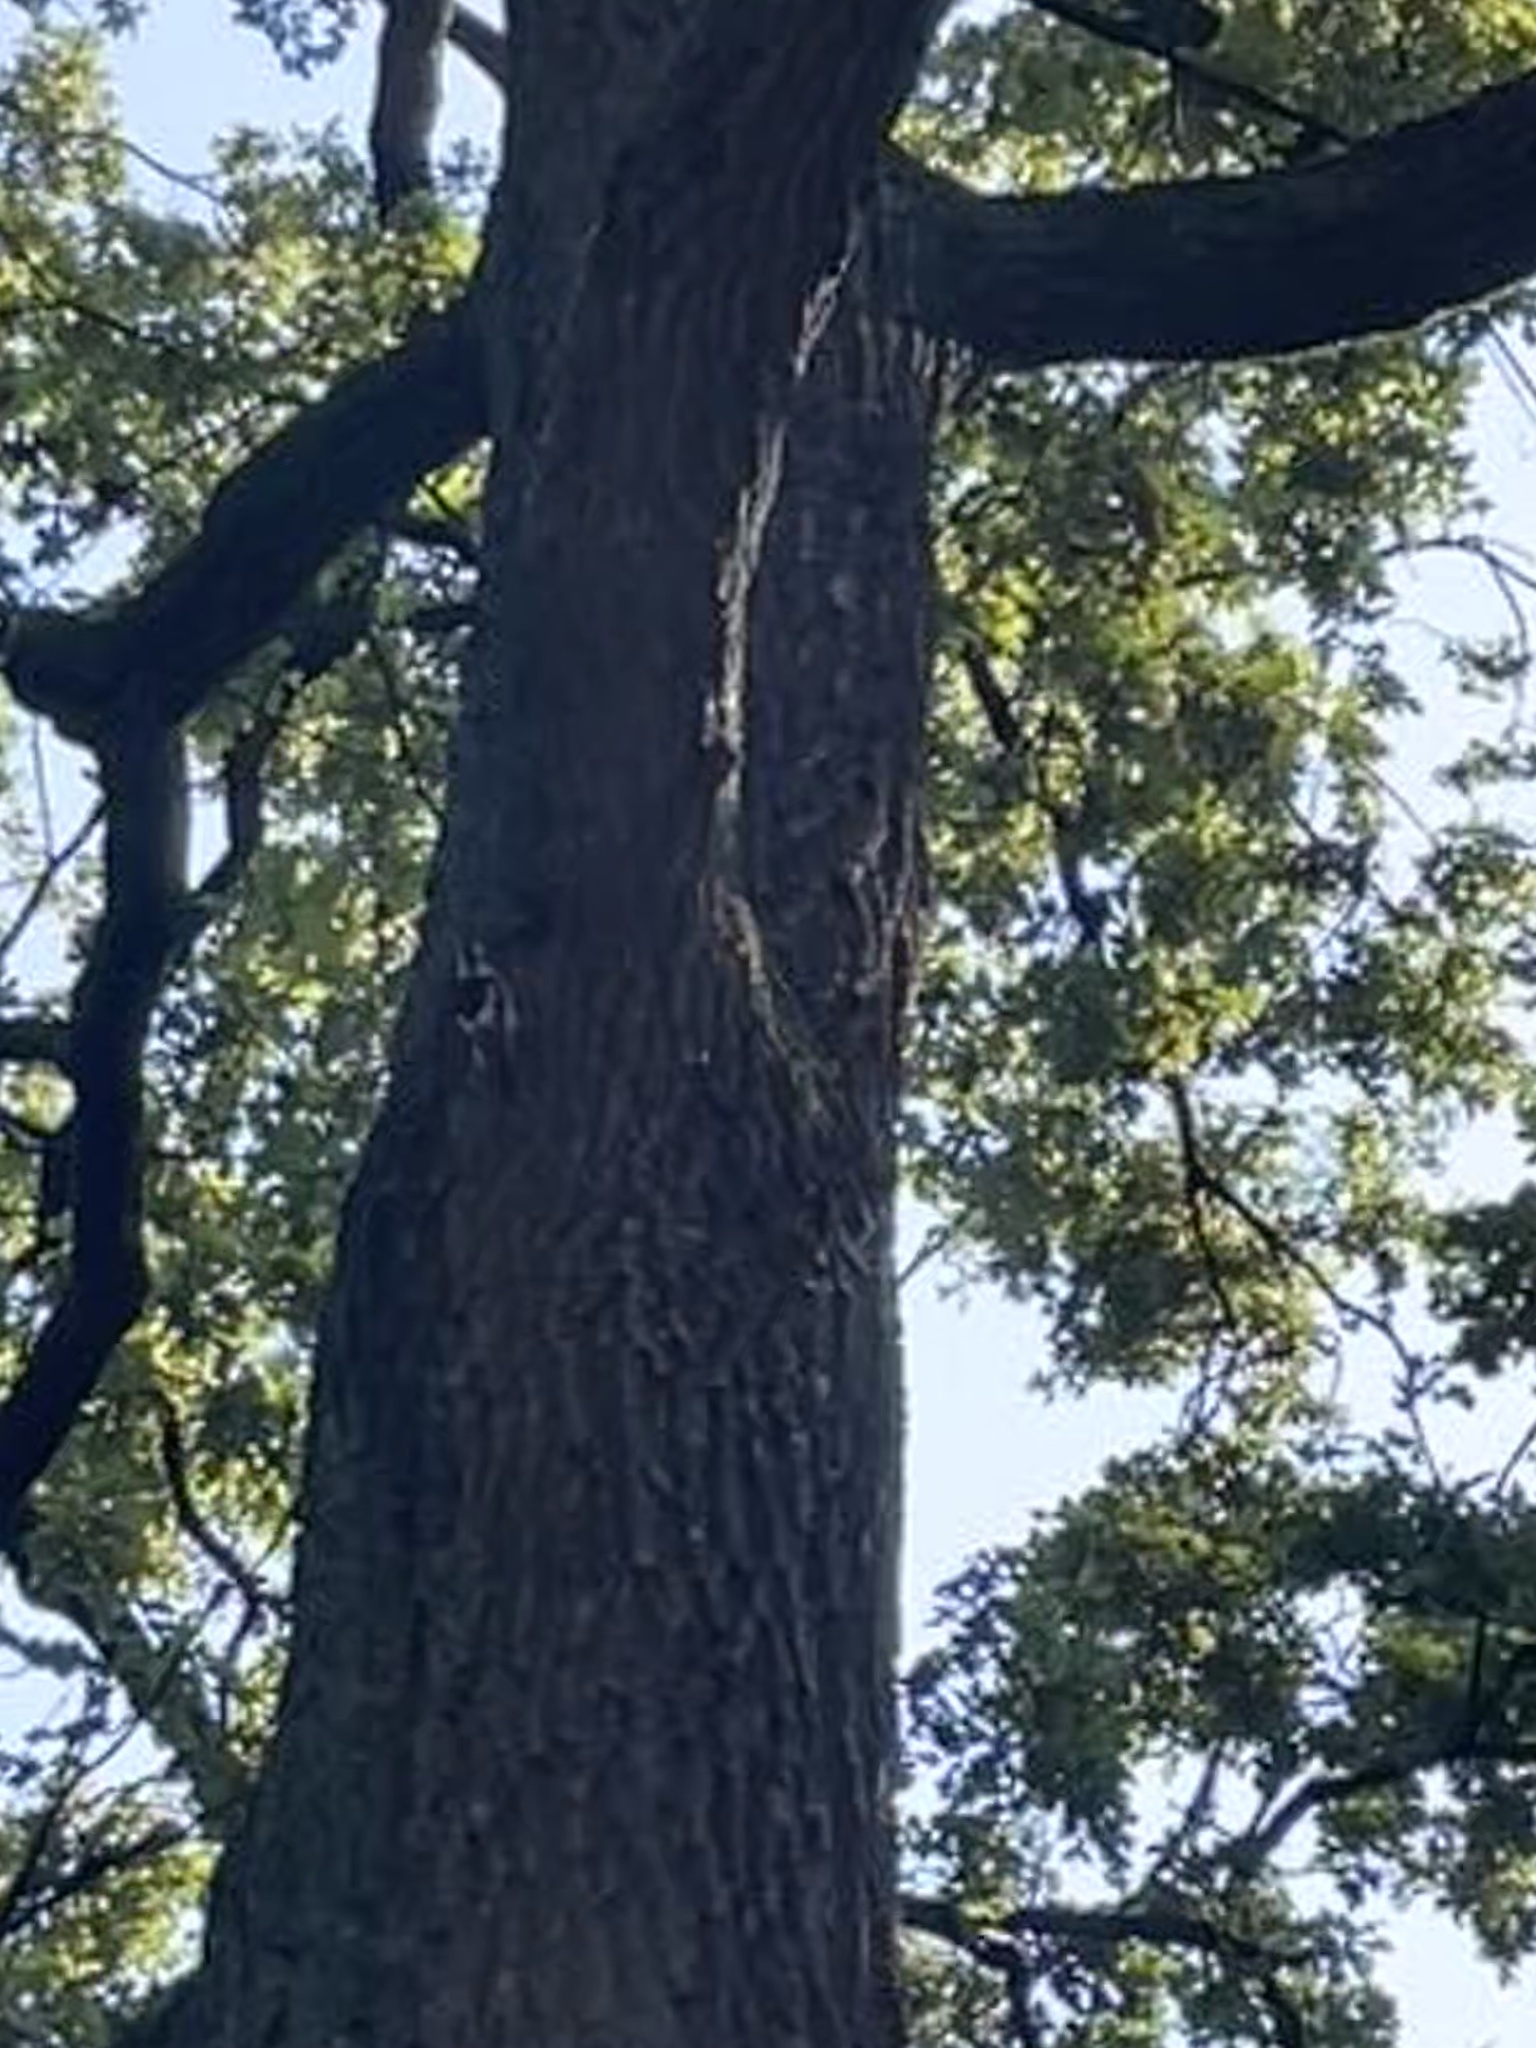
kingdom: Animalia
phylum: Chordata
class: Aves
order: Piciformes
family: Picidae
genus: Dendrocopos
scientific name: Dendrocopos major
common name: Great spotted woodpecker
